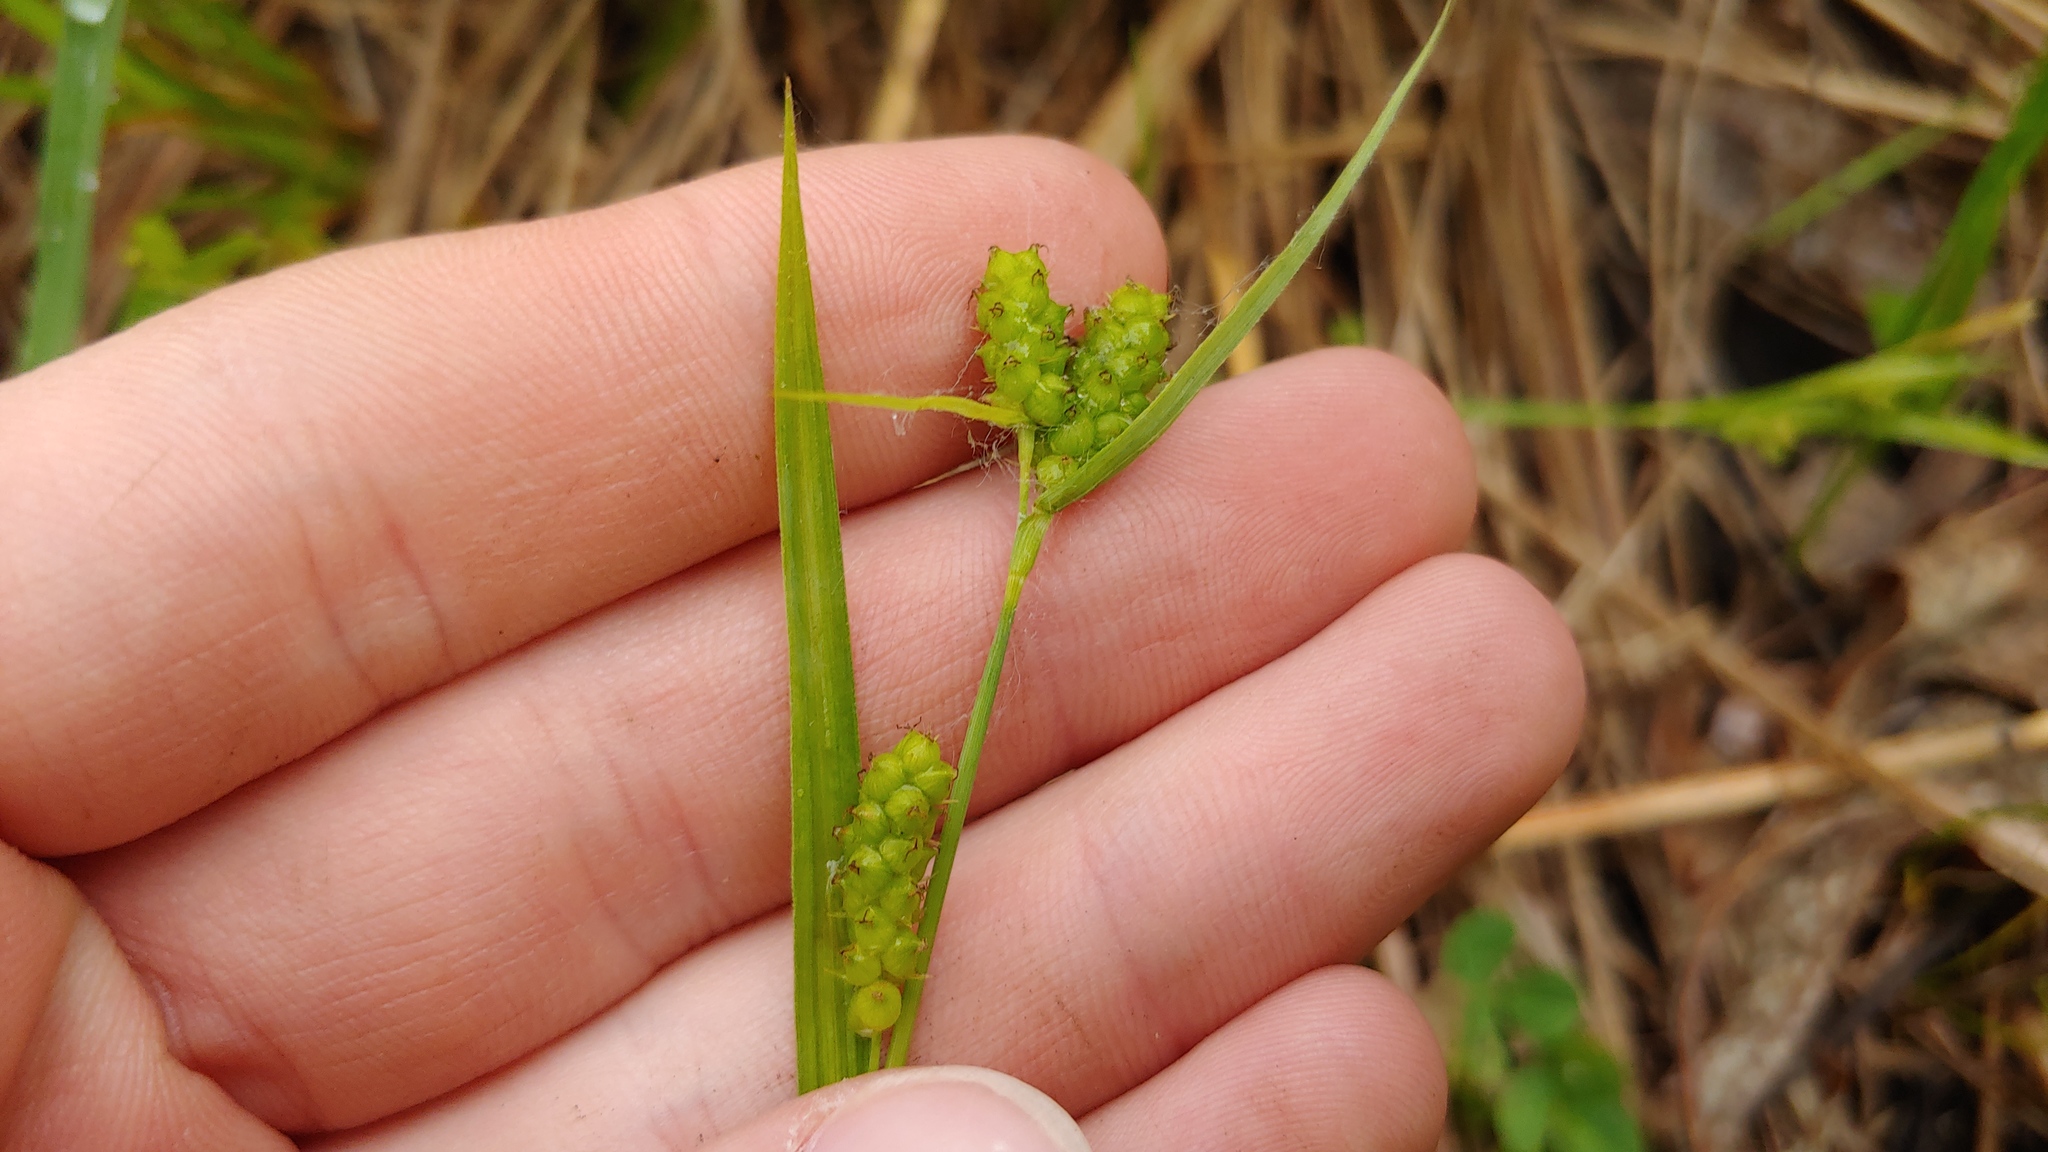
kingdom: Plantae
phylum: Tracheophyta
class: Liliopsida
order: Poales
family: Cyperaceae
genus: Carex
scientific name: Carex granularis
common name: Granular sedge
